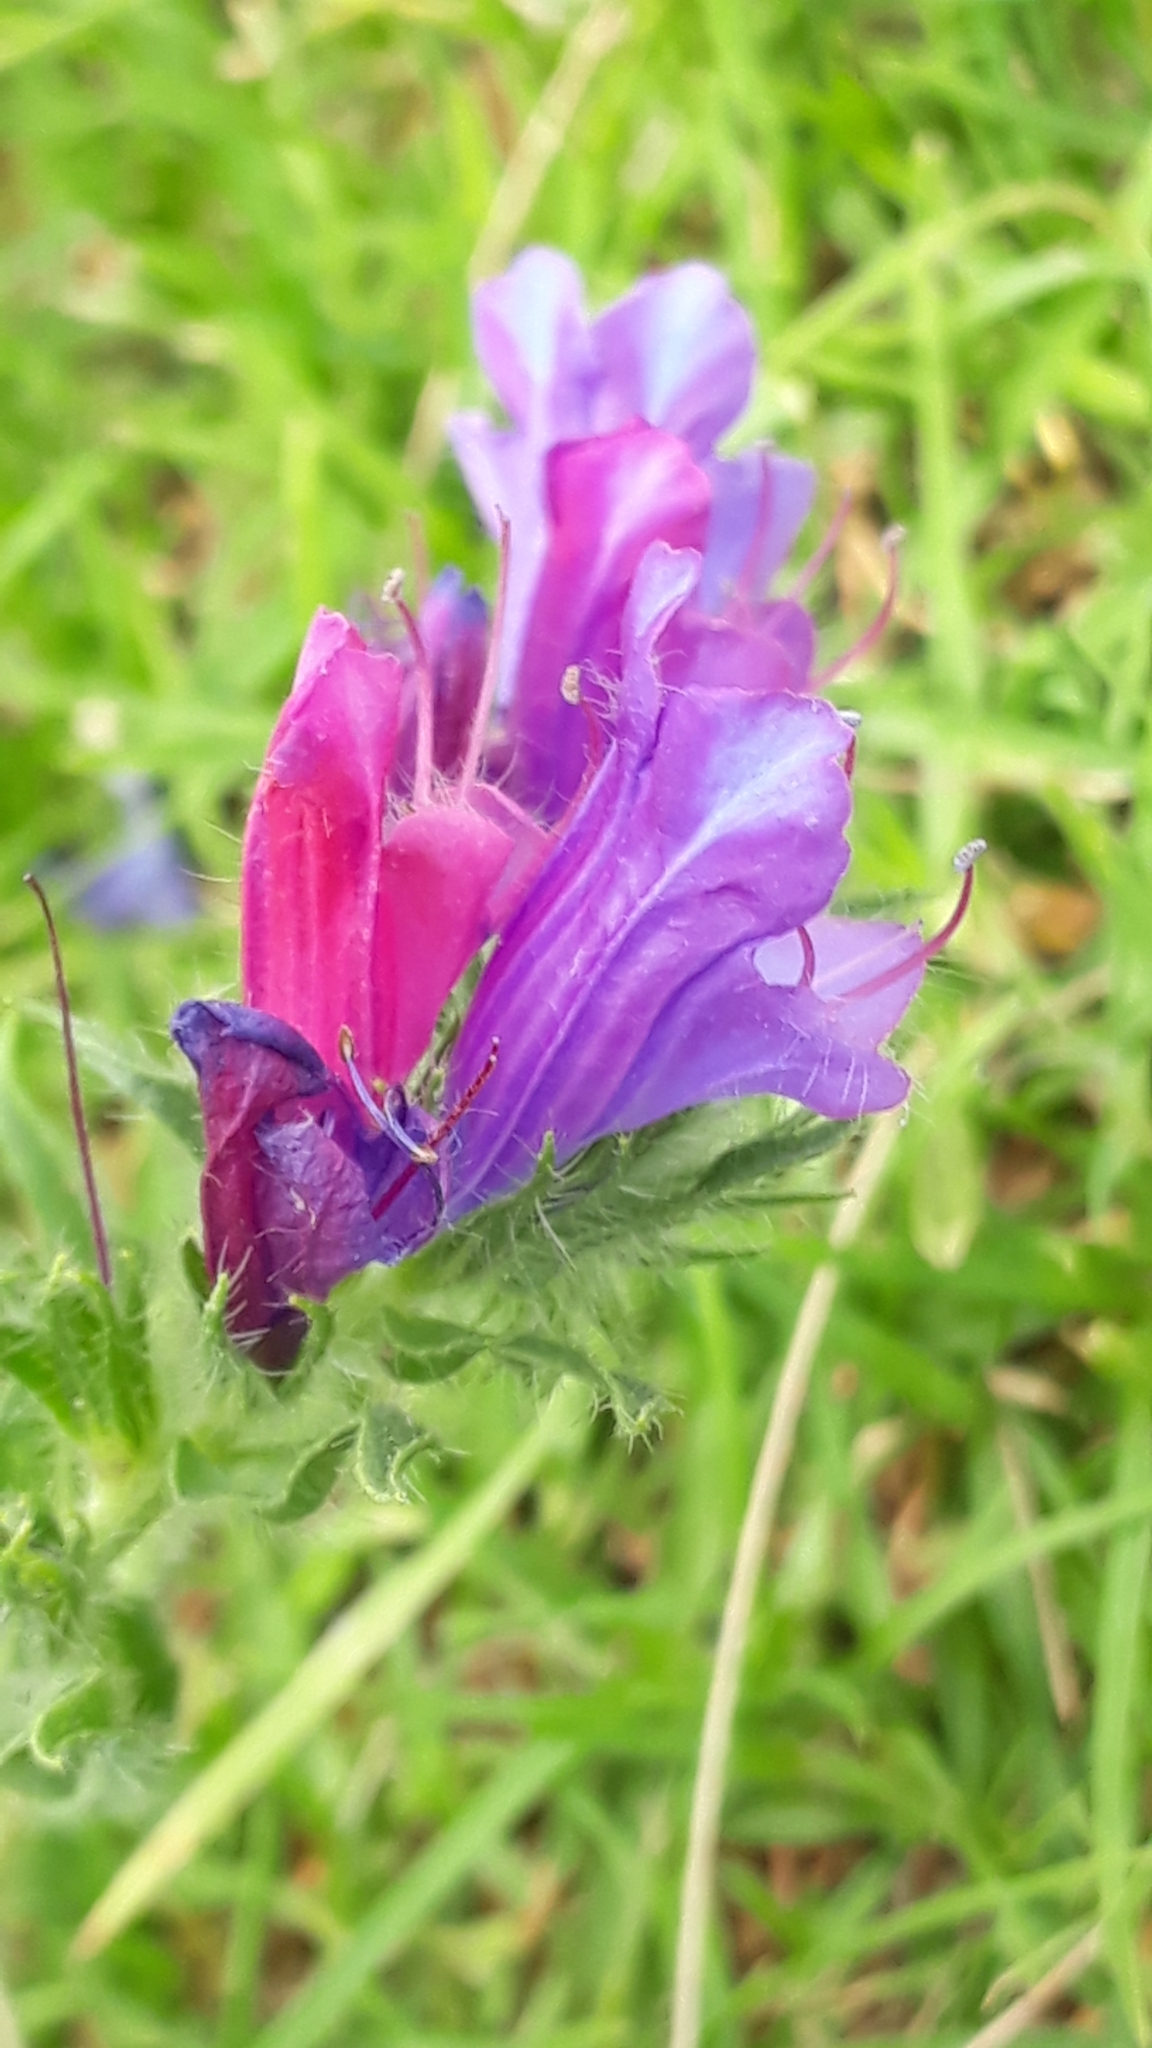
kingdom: Plantae
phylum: Tracheophyta
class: Magnoliopsida
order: Boraginales
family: Boraginaceae
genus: Echium
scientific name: Echium plantagineum
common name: Purple viper's-bugloss
